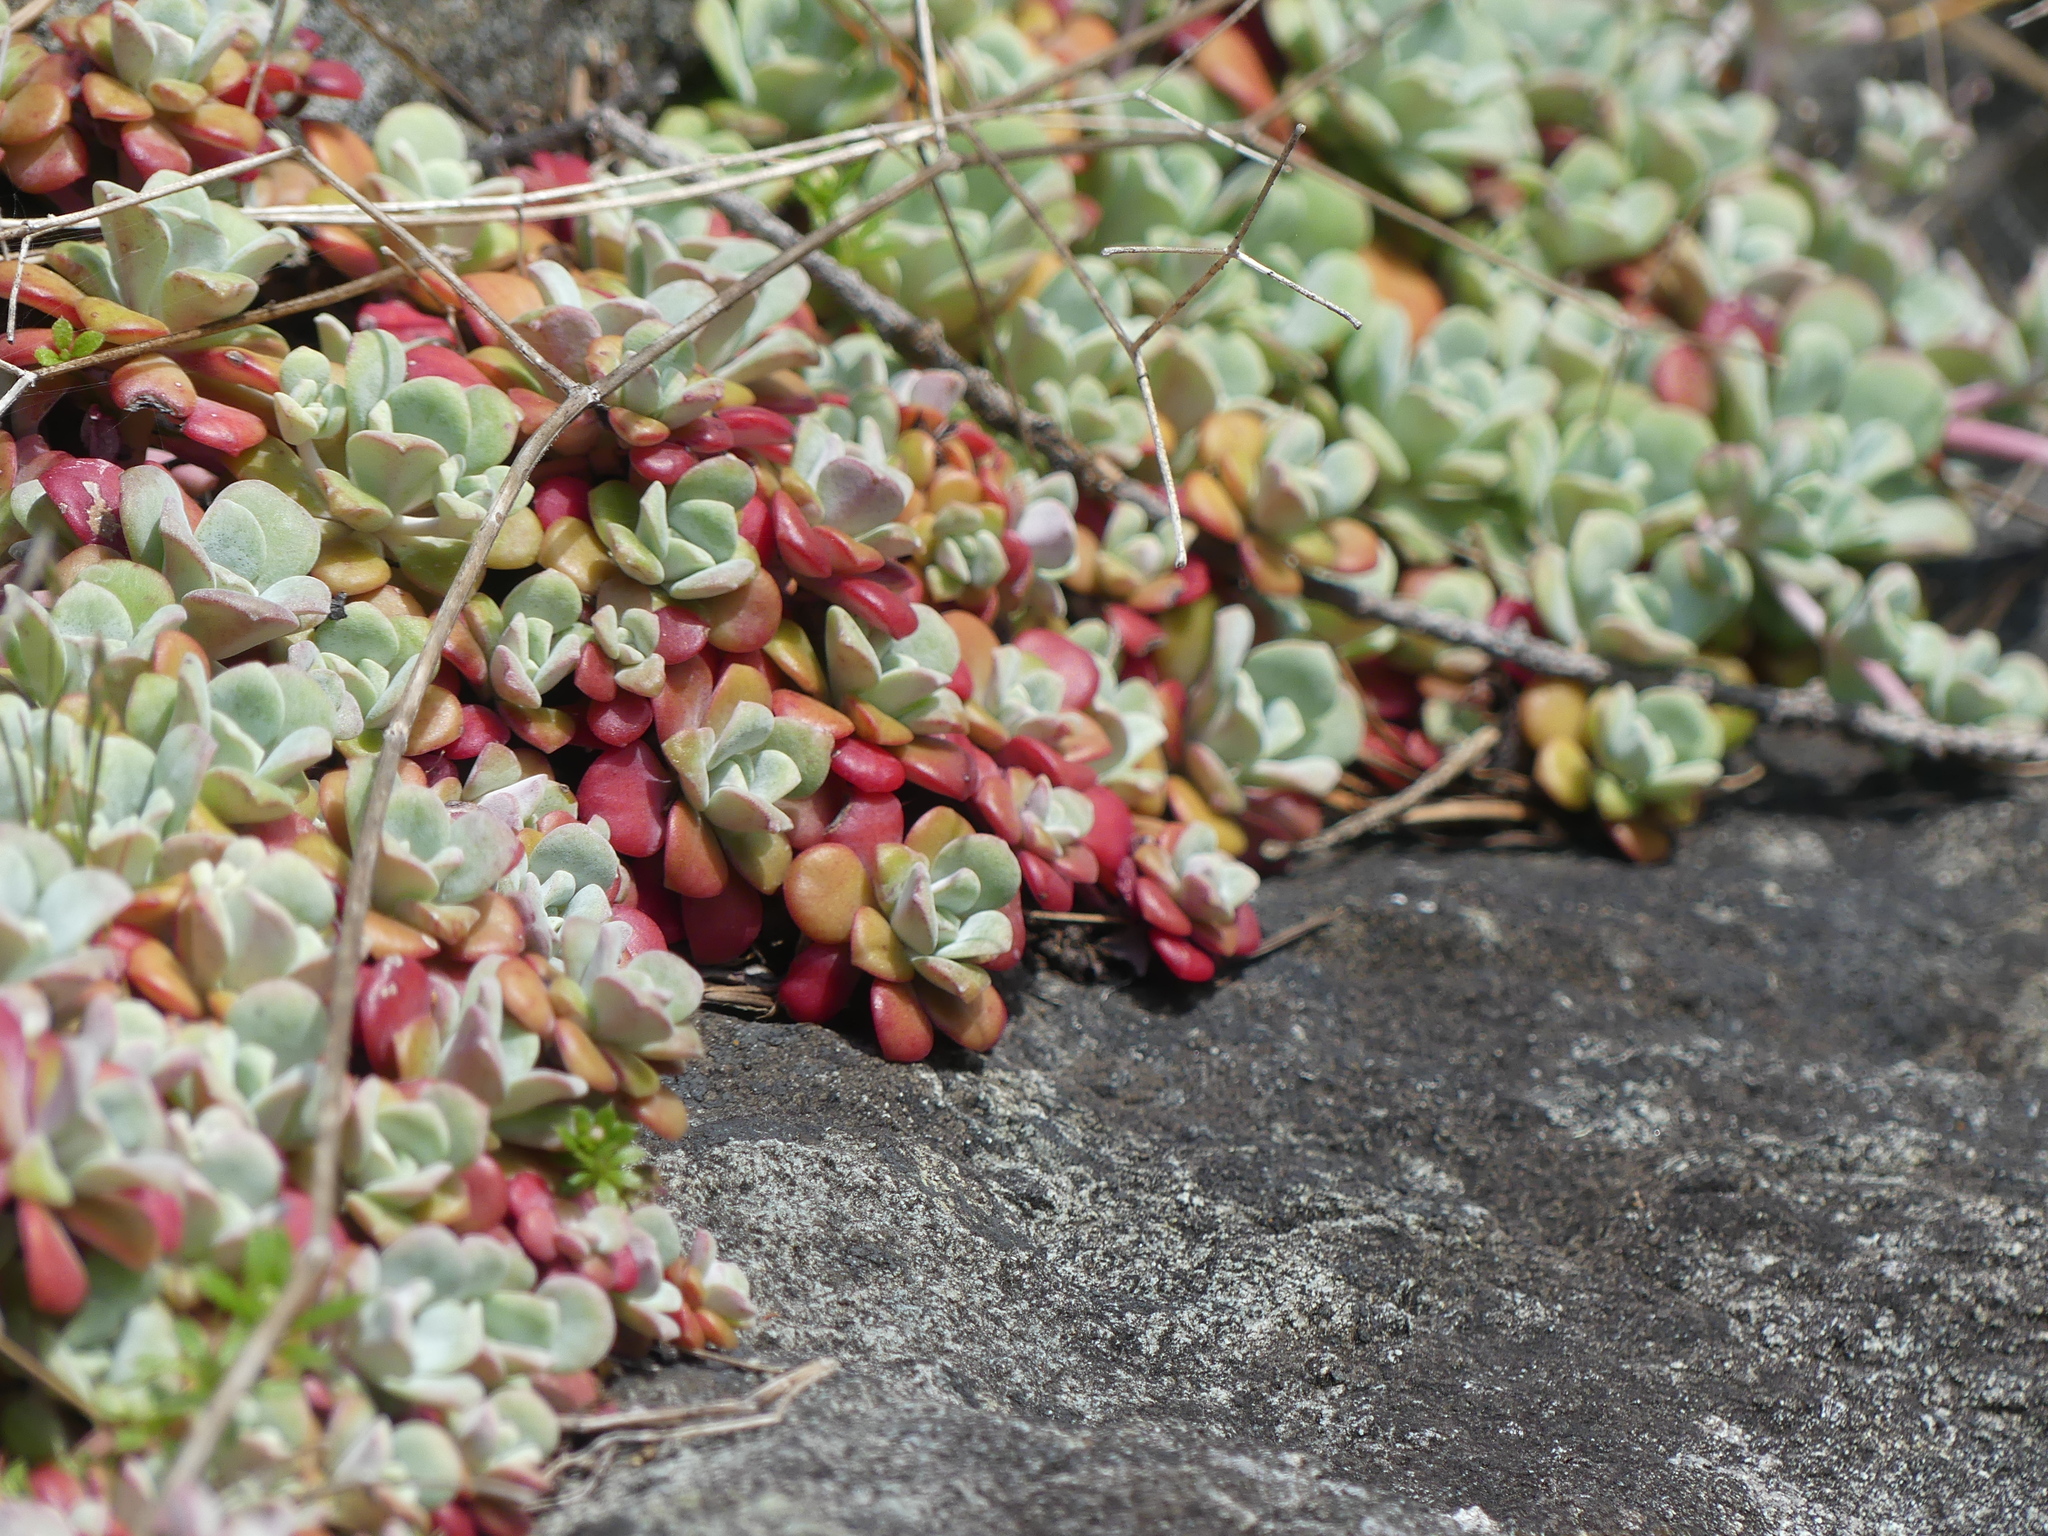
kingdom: Plantae
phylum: Tracheophyta
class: Magnoliopsida
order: Saxifragales
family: Crassulaceae
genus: Sedum
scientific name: Sedum spathulifolium
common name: Colorado stonecrop
